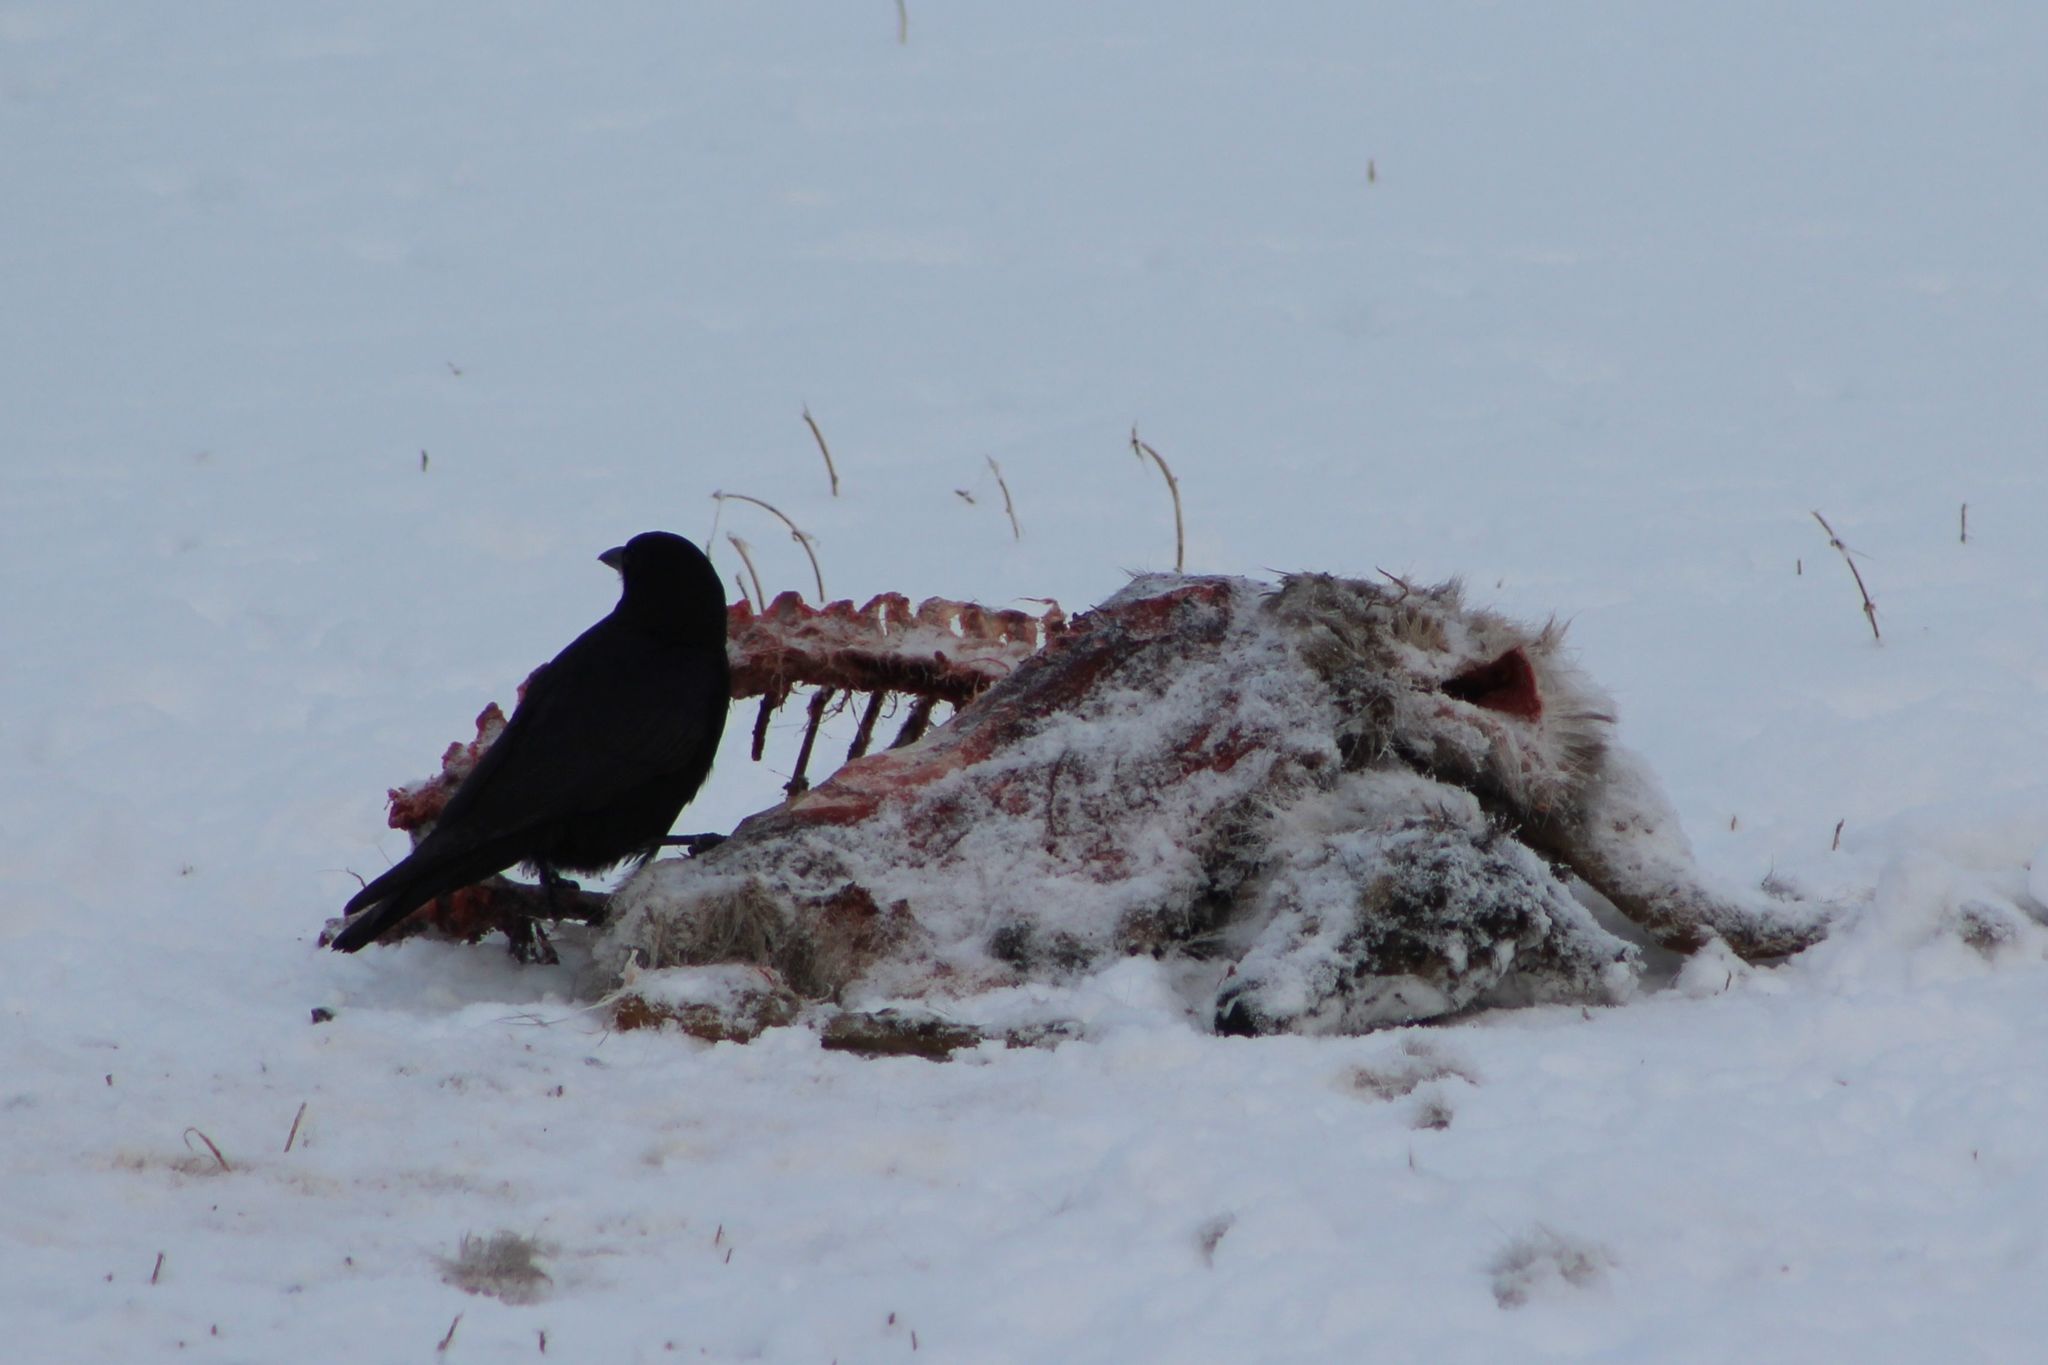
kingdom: Animalia
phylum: Chordata
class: Aves
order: Passeriformes
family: Corvidae
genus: Corvus
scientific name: Corvus brachyrhynchos
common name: American crow
